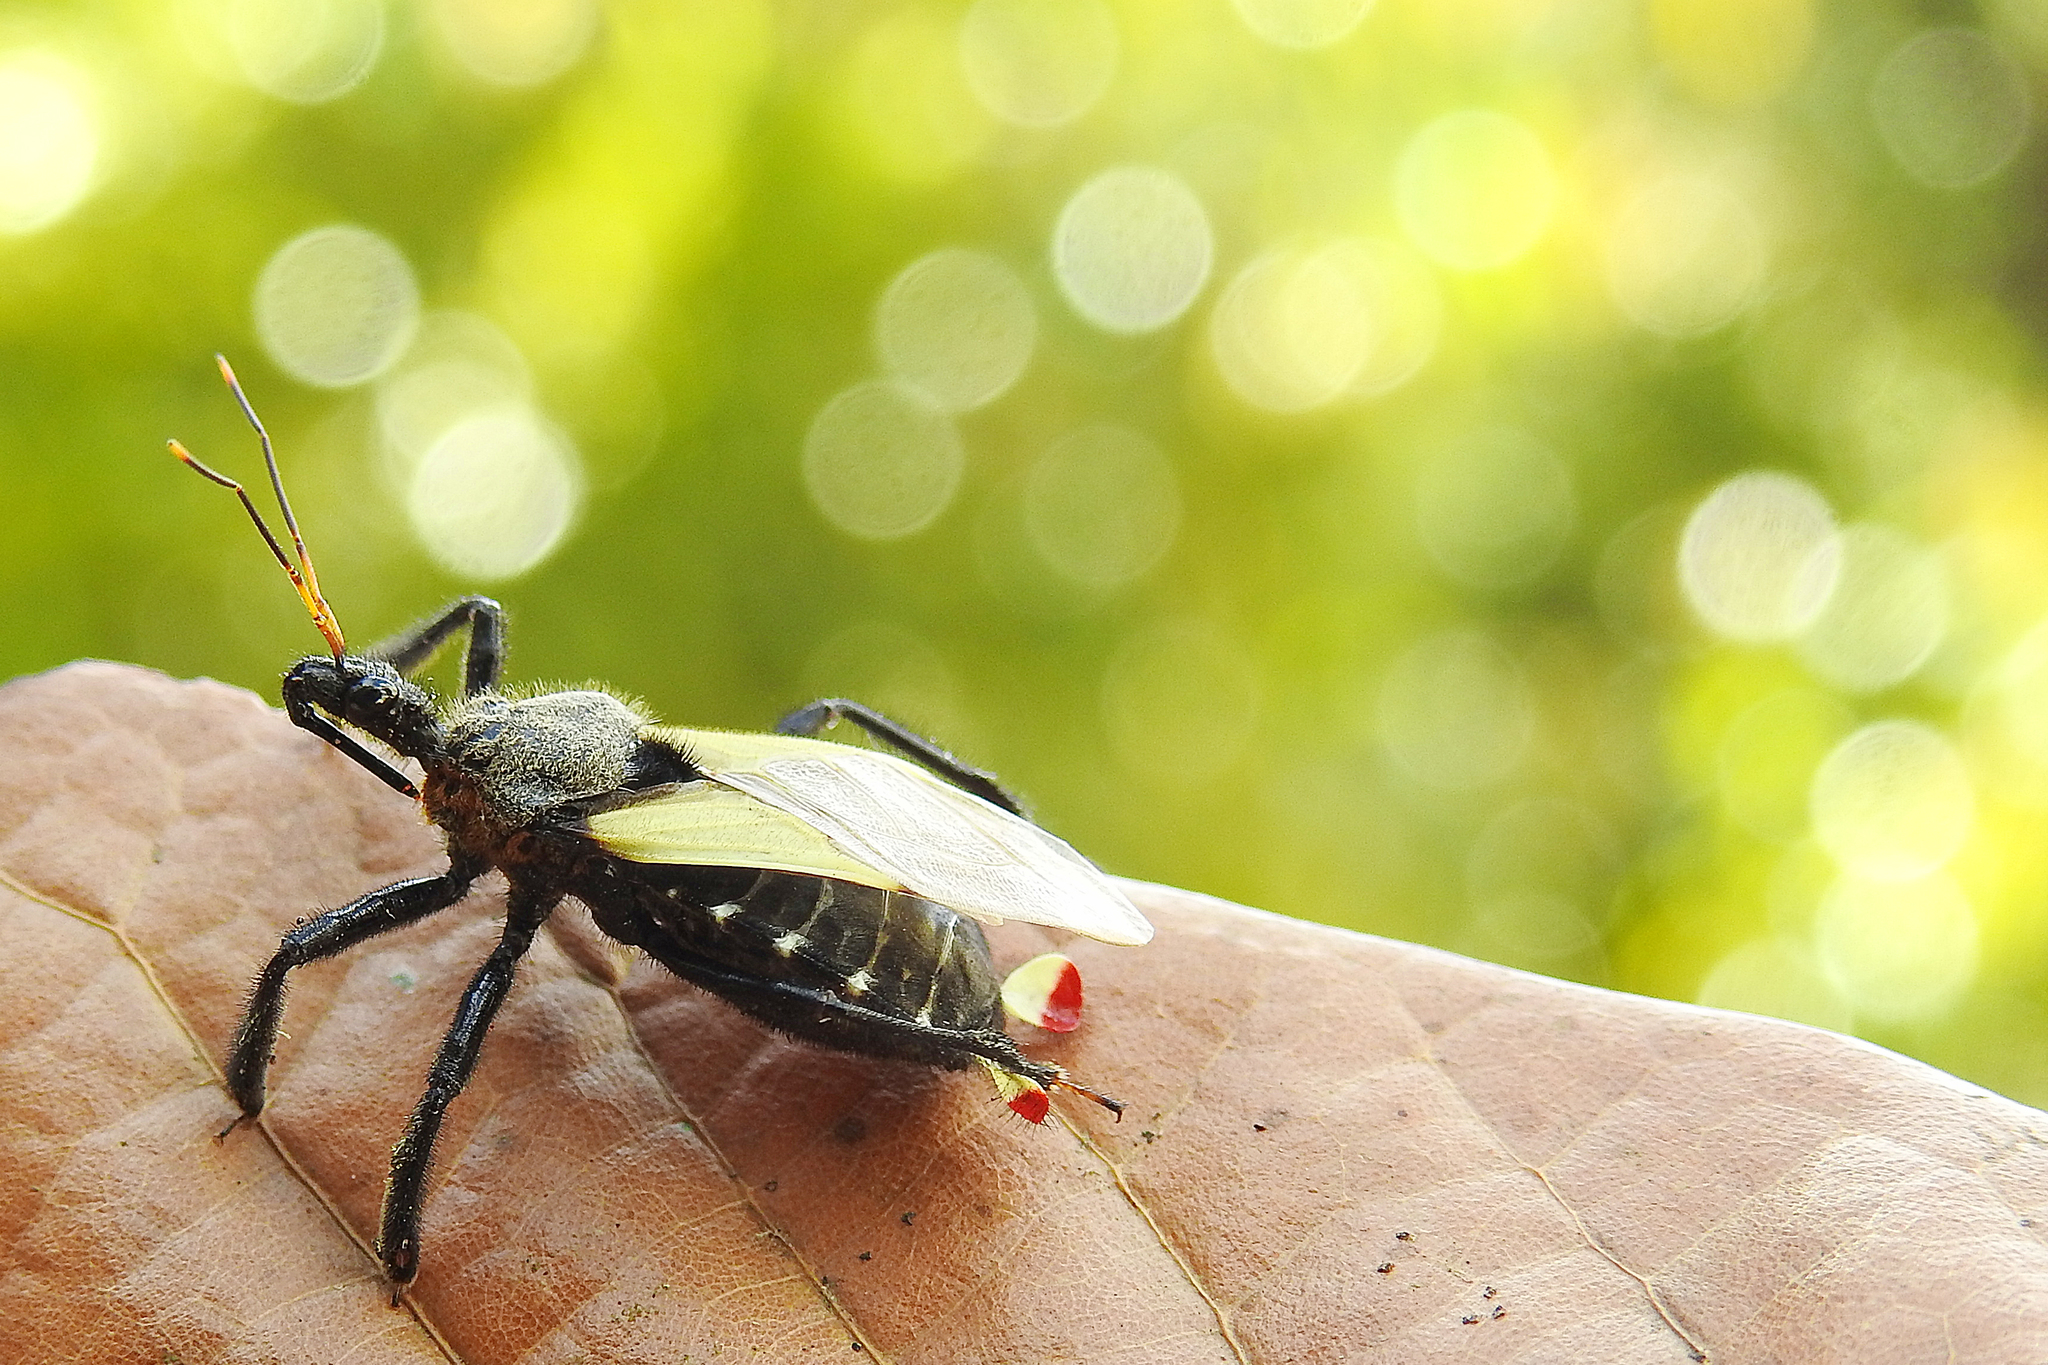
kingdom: Animalia
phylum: Arthropoda
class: Insecta
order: Hemiptera
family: Reduviidae
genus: Apiomerus
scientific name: Apiomerus ochropterus
